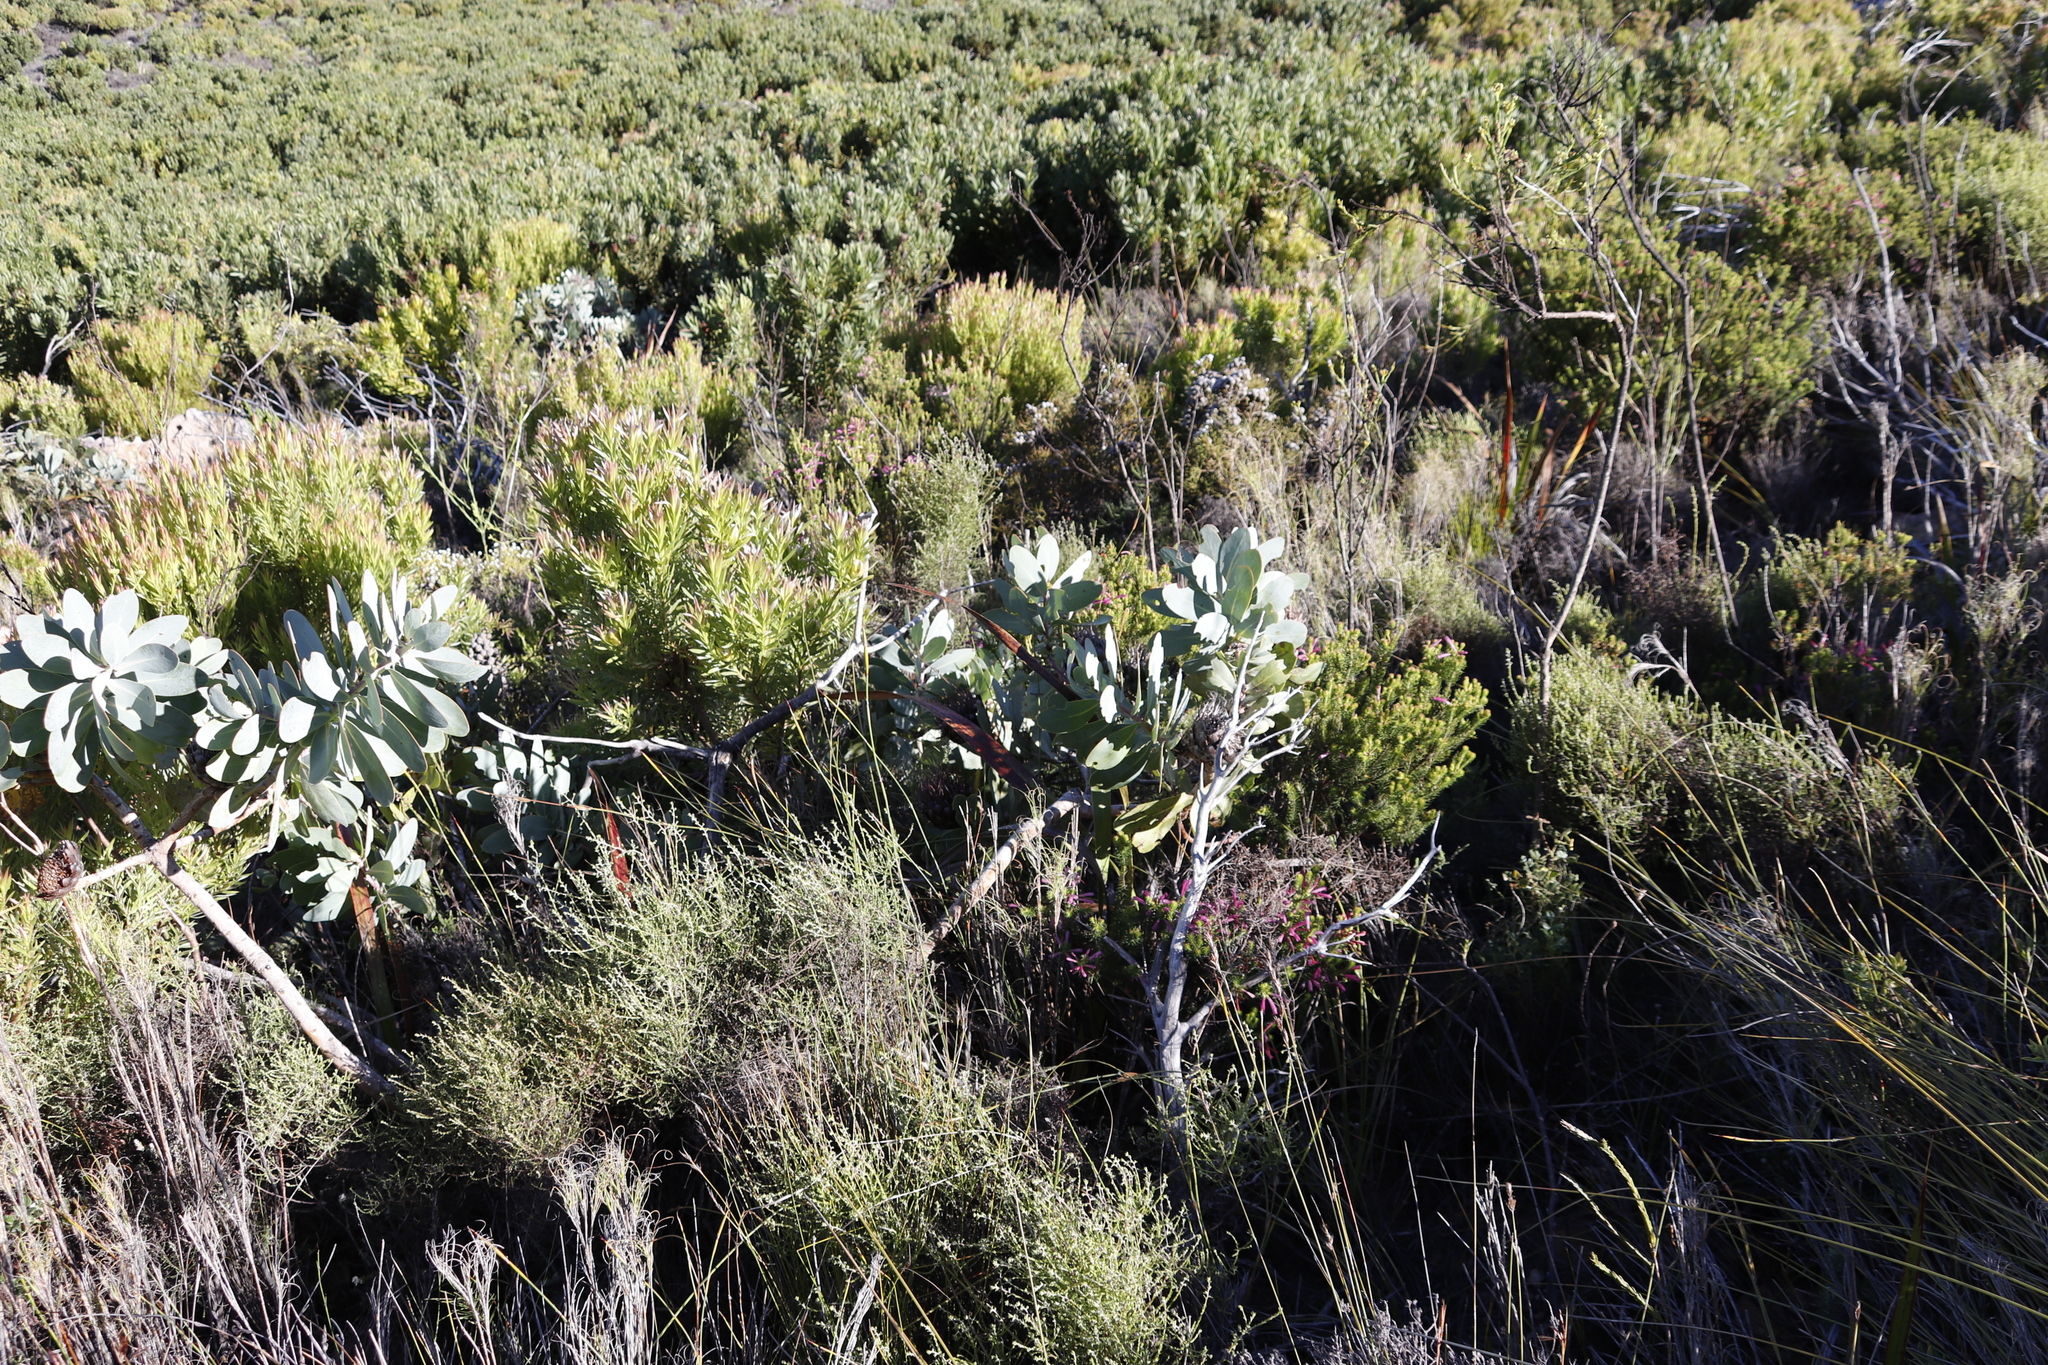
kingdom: Plantae
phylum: Tracheophyta
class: Magnoliopsida
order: Proteales
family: Proteaceae
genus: Protea
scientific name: Protea nitida
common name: Tree protea
